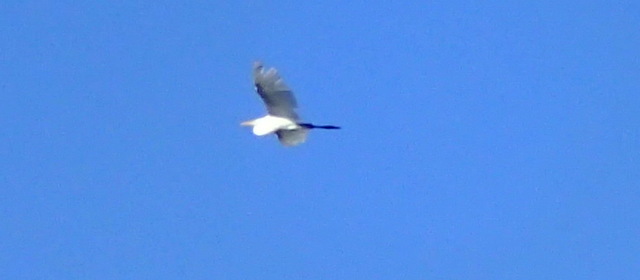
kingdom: Animalia
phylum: Chordata
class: Aves
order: Pelecaniformes
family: Ardeidae
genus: Ardea
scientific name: Ardea alba
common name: Great egret
